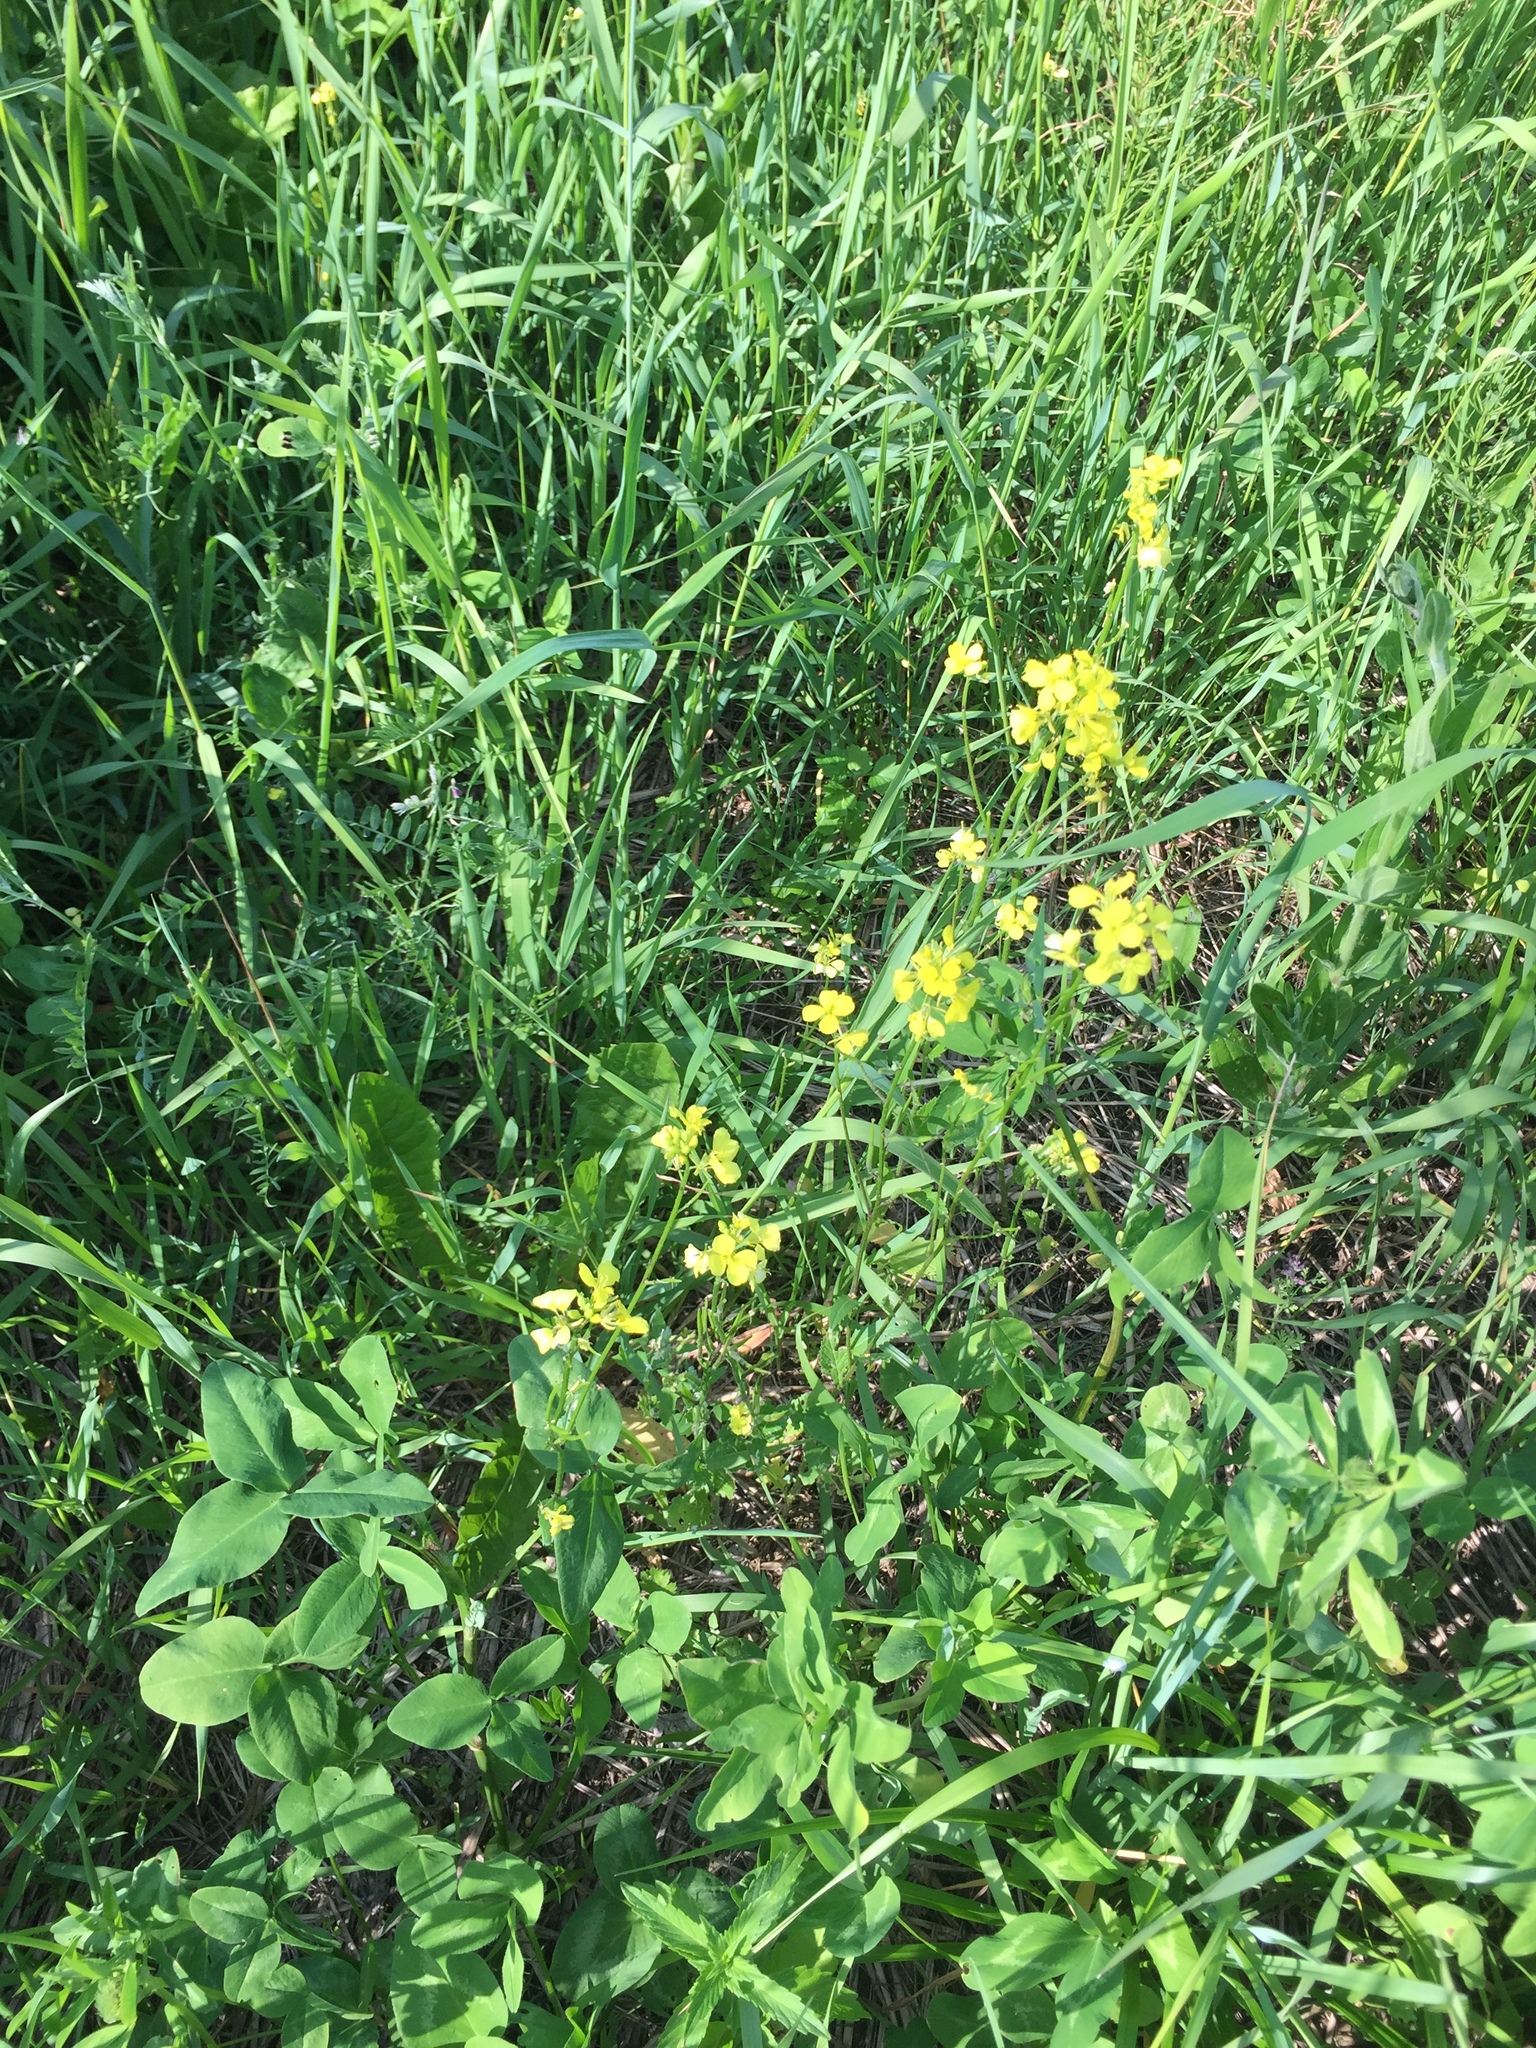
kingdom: Plantae
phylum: Tracheophyta
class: Magnoliopsida
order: Brassicales
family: Brassicaceae
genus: Barbarea
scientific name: Barbarea vulgaris
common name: Cressy-greens
